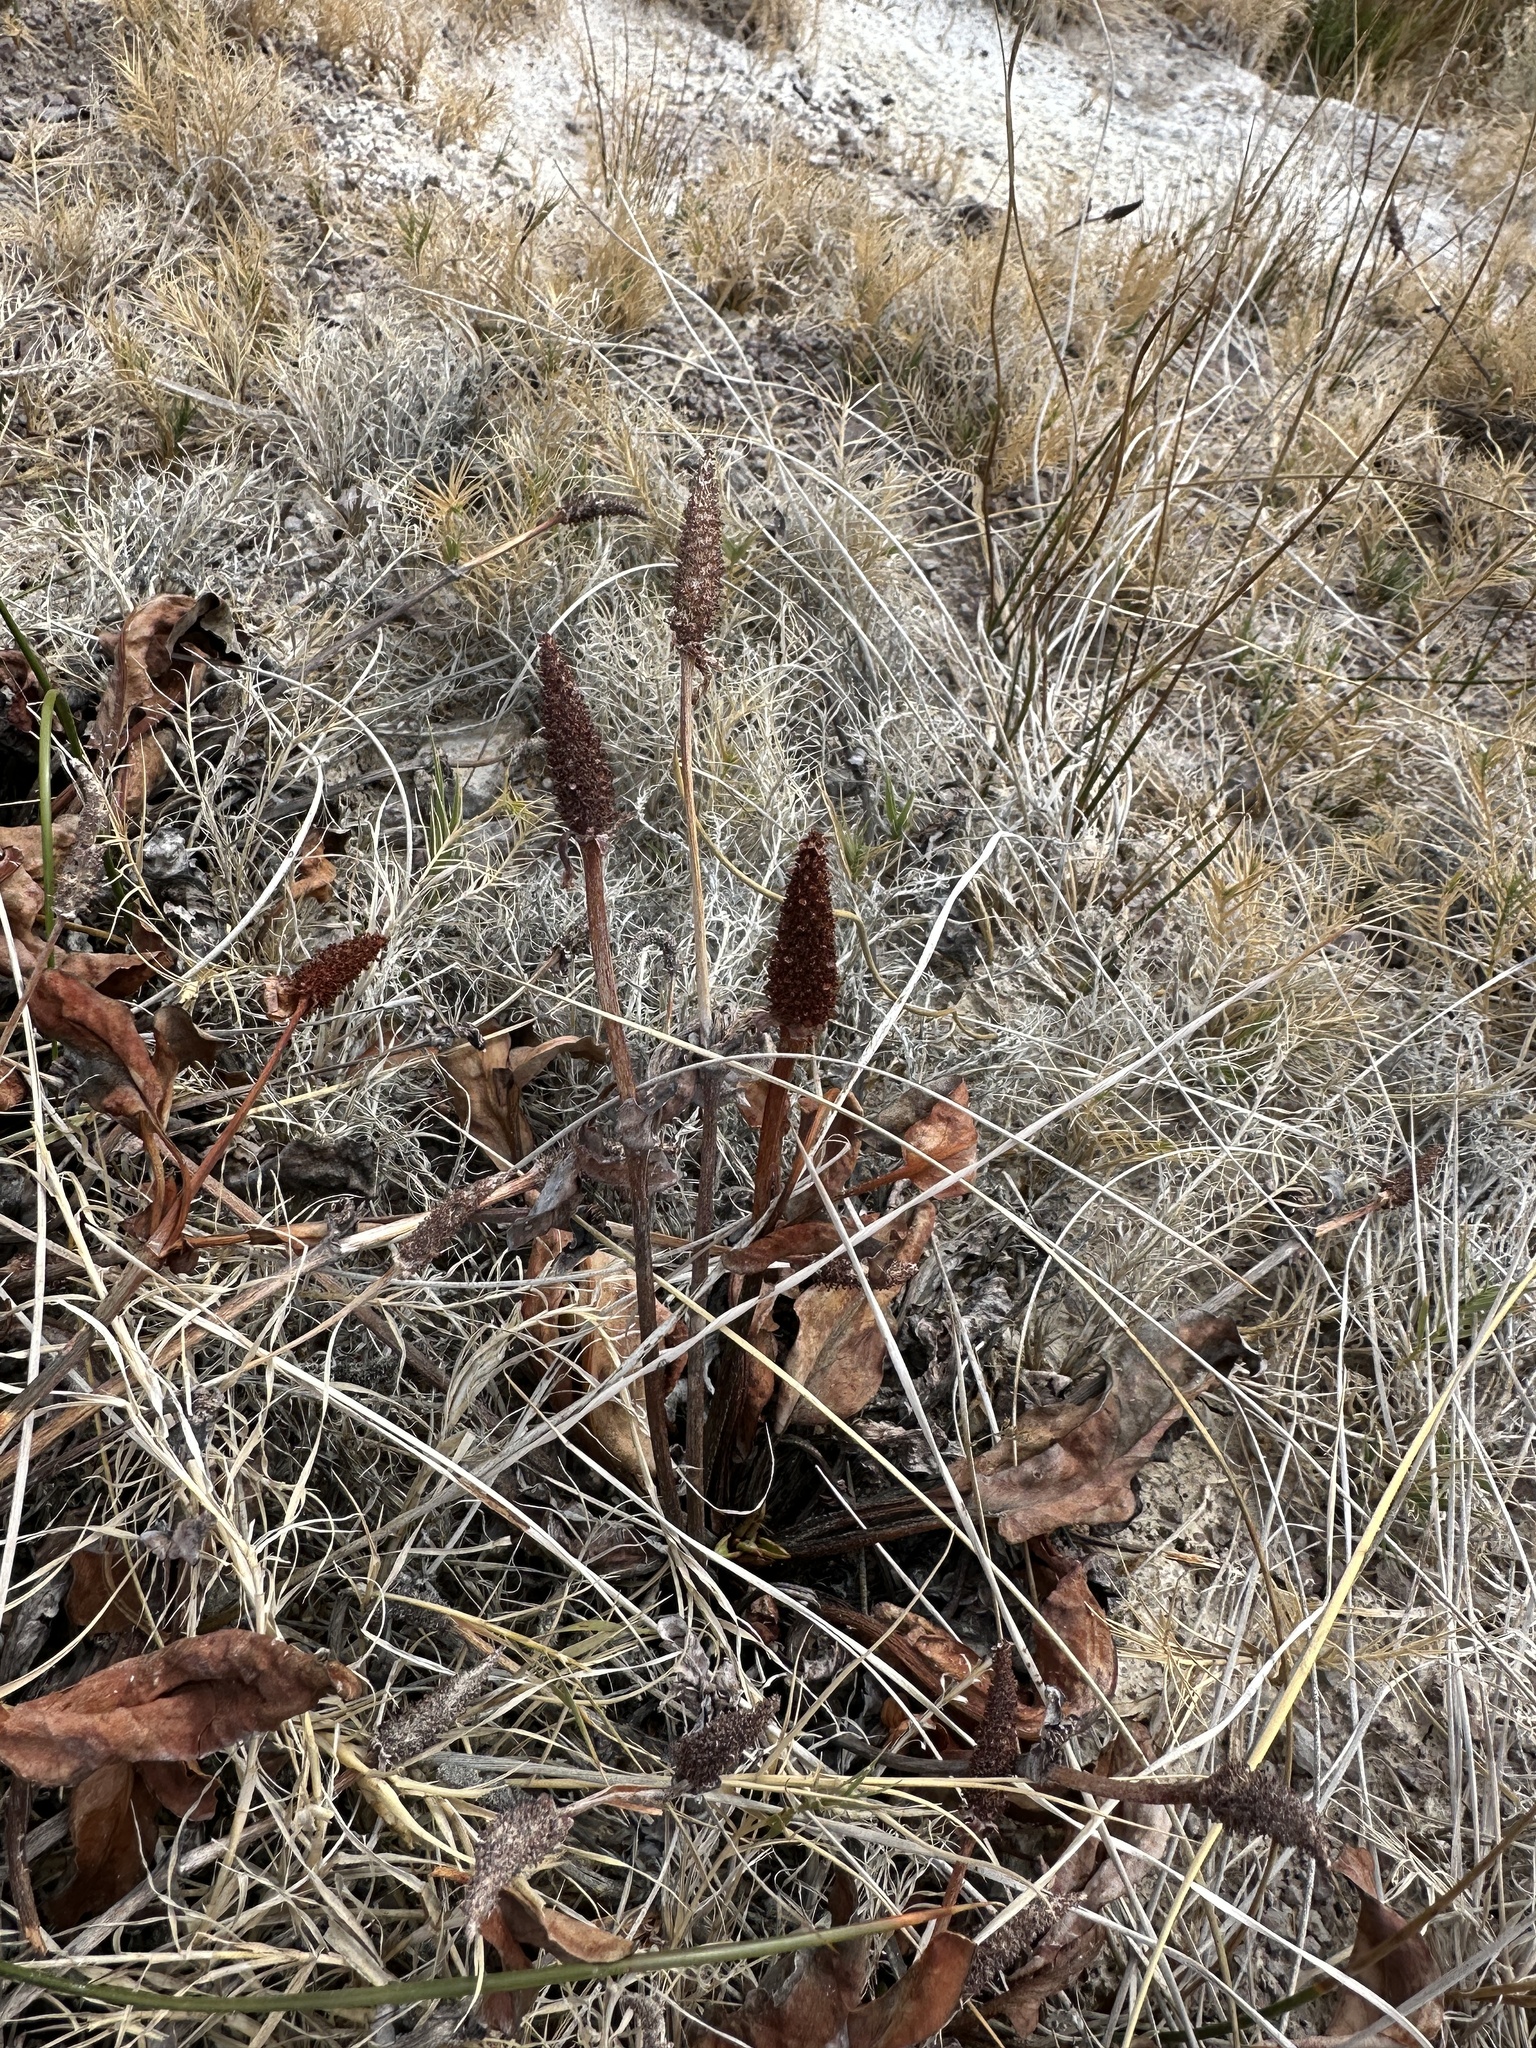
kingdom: Plantae
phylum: Tracheophyta
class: Magnoliopsida
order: Piperales
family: Saururaceae
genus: Anemopsis
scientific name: Anemopsis californica
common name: Apache-beads
